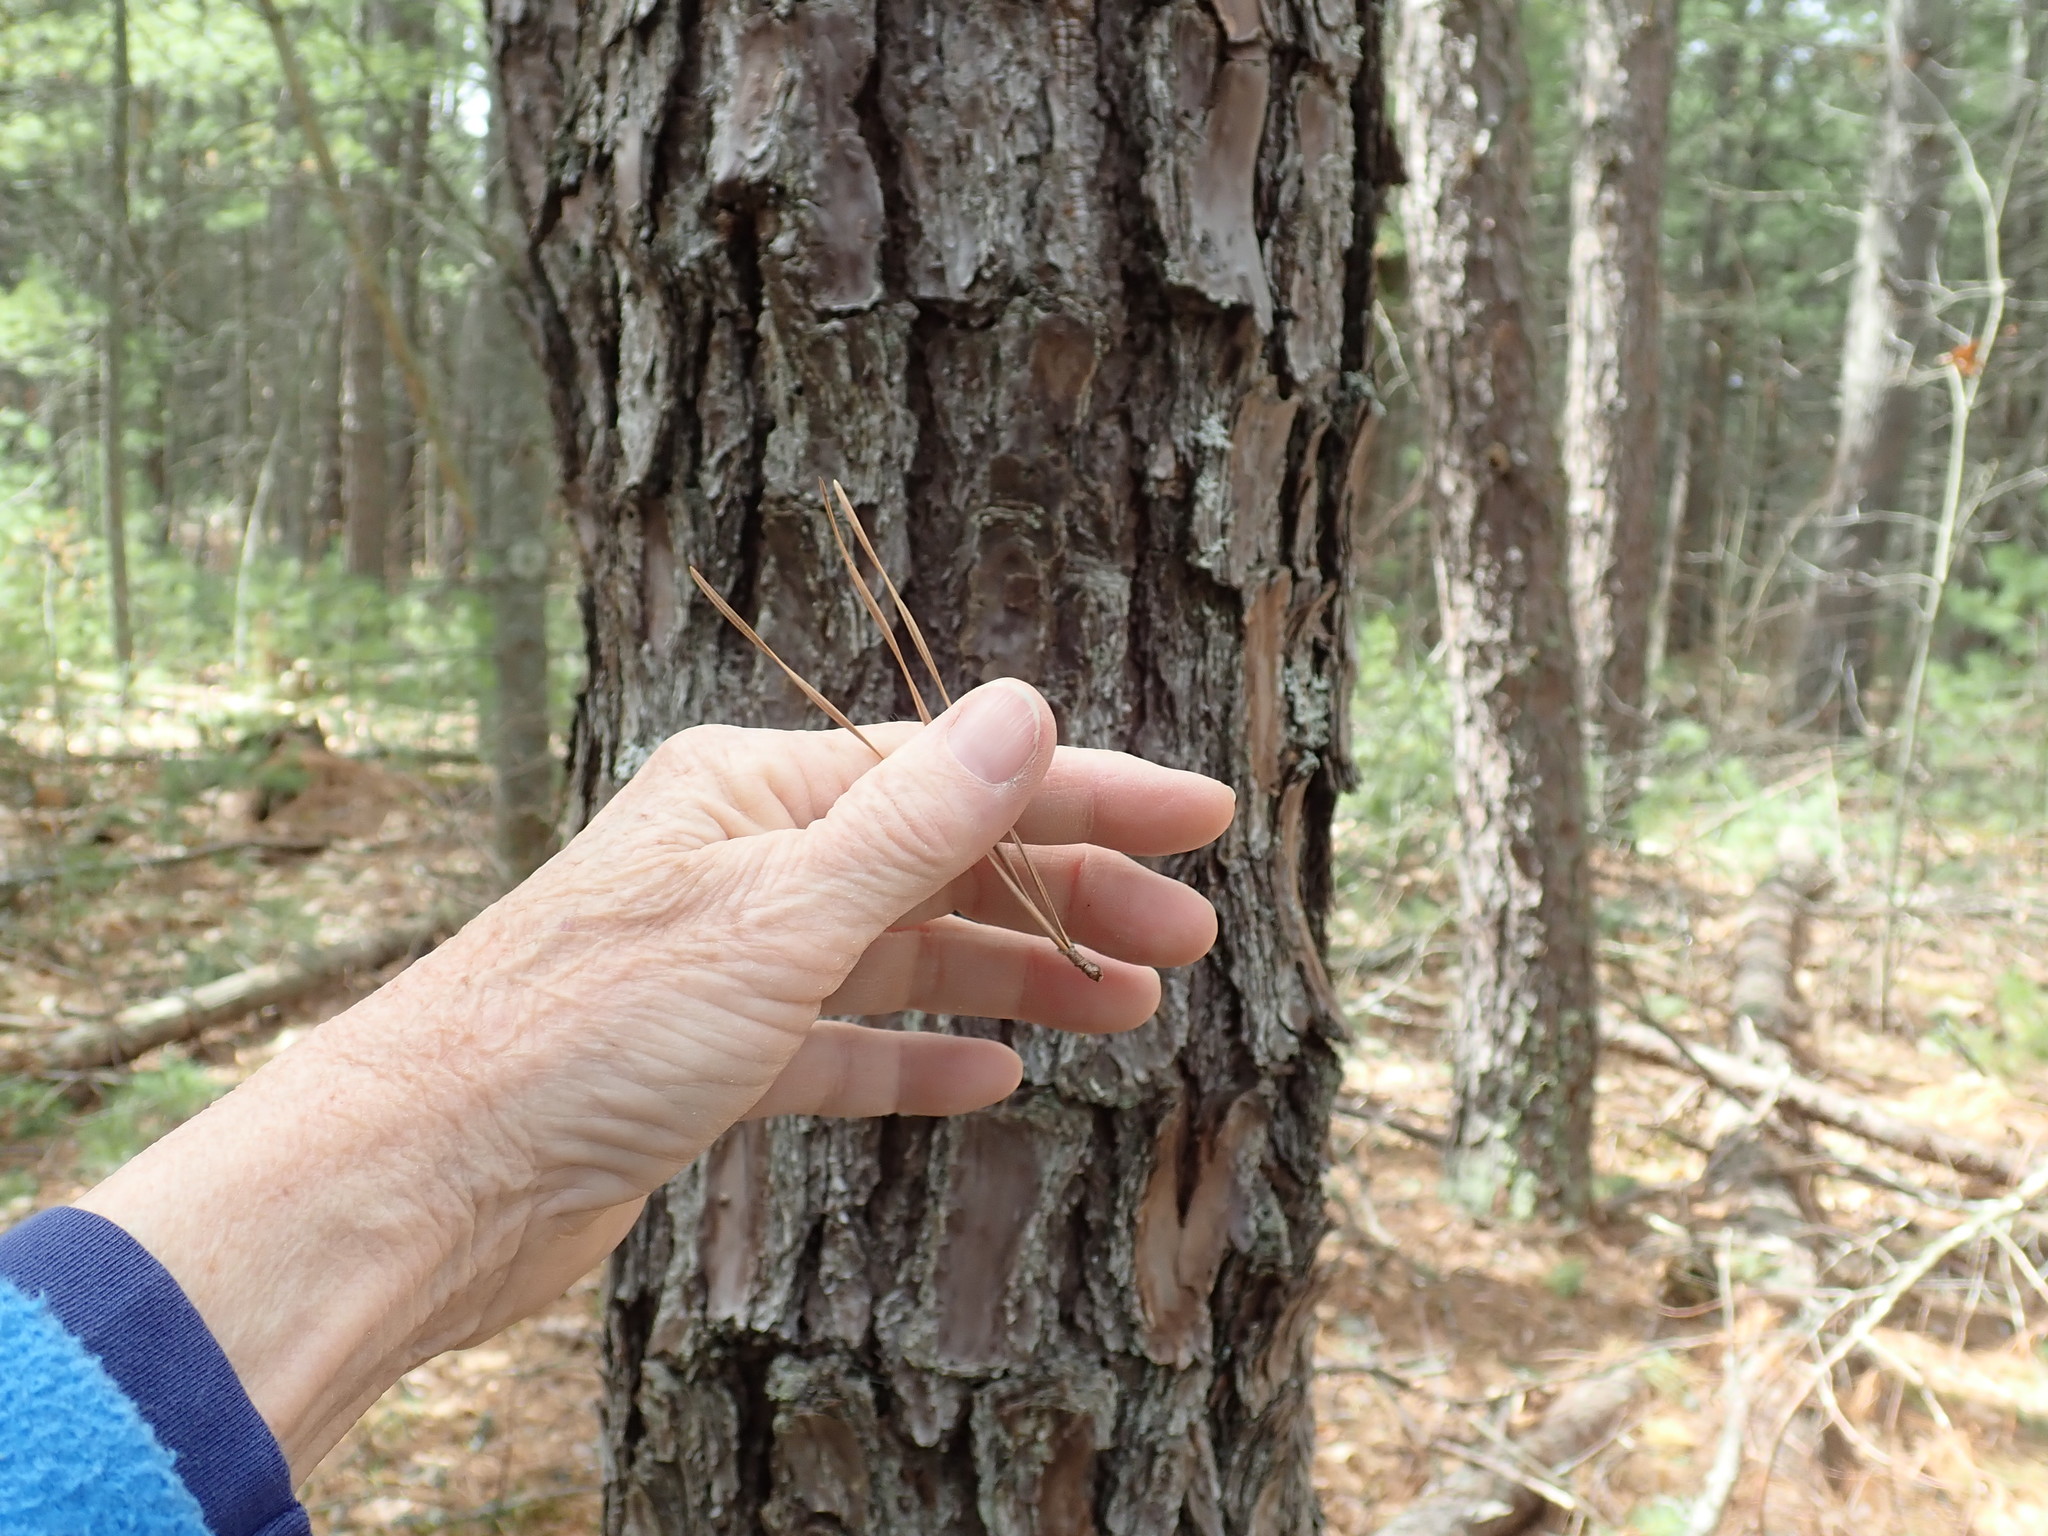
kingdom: Plantae
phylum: Tracheophyta
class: Pinopsida
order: Pinales
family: Pinaceae
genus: Pinus
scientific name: Pinus rigida
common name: Pitch pine
